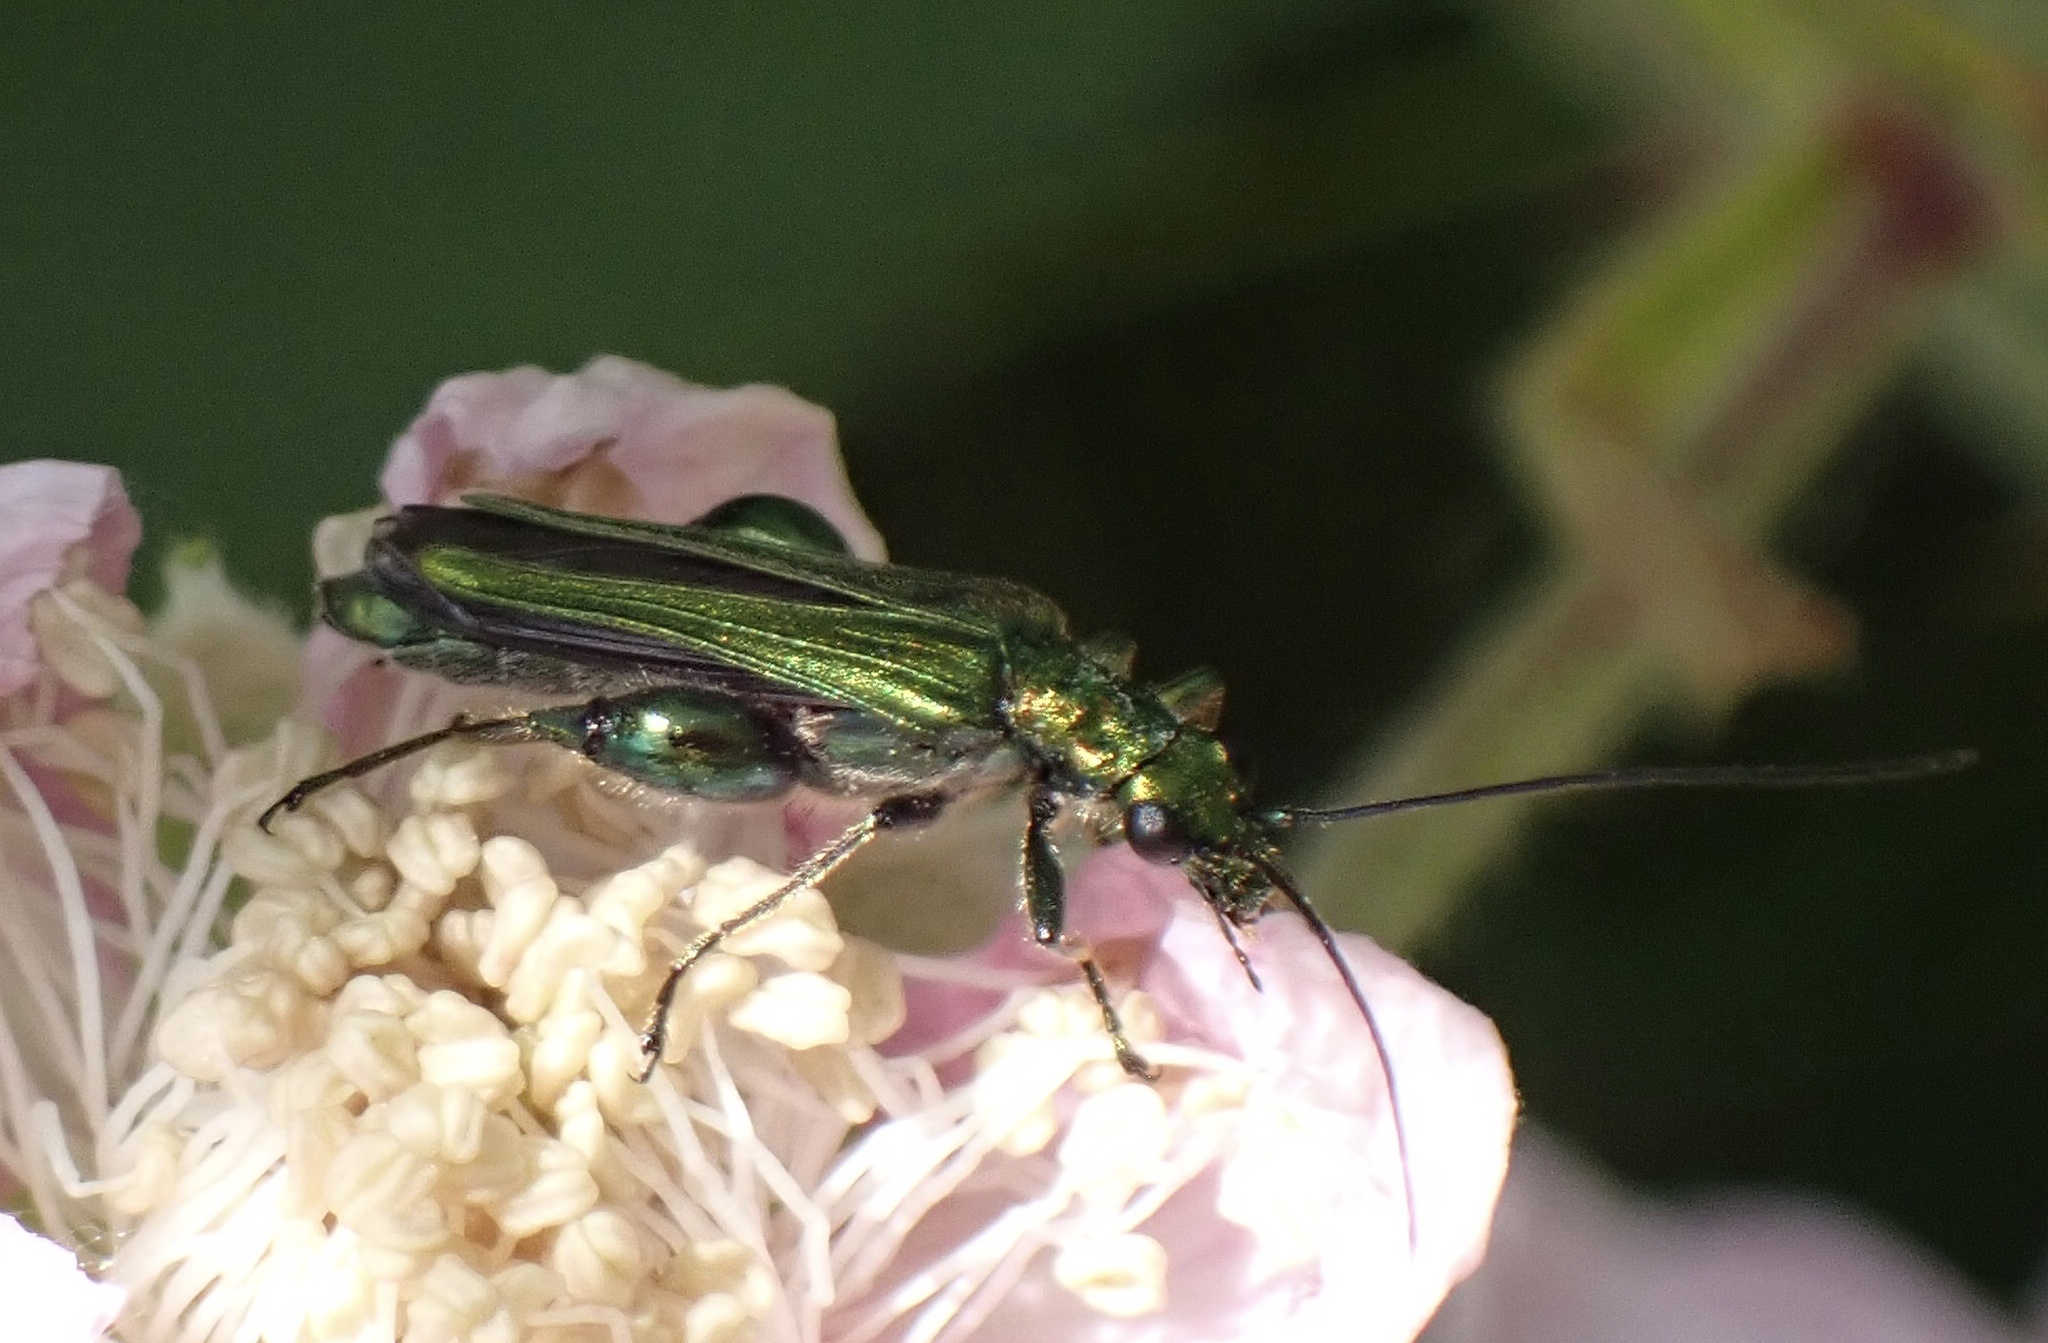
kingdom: Animalia
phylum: Arthropoda
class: Insecta
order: Coleoptera
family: Oedemeridae
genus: Oedemera
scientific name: Oedemera nobilis
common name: Swollen-thighed beetle
